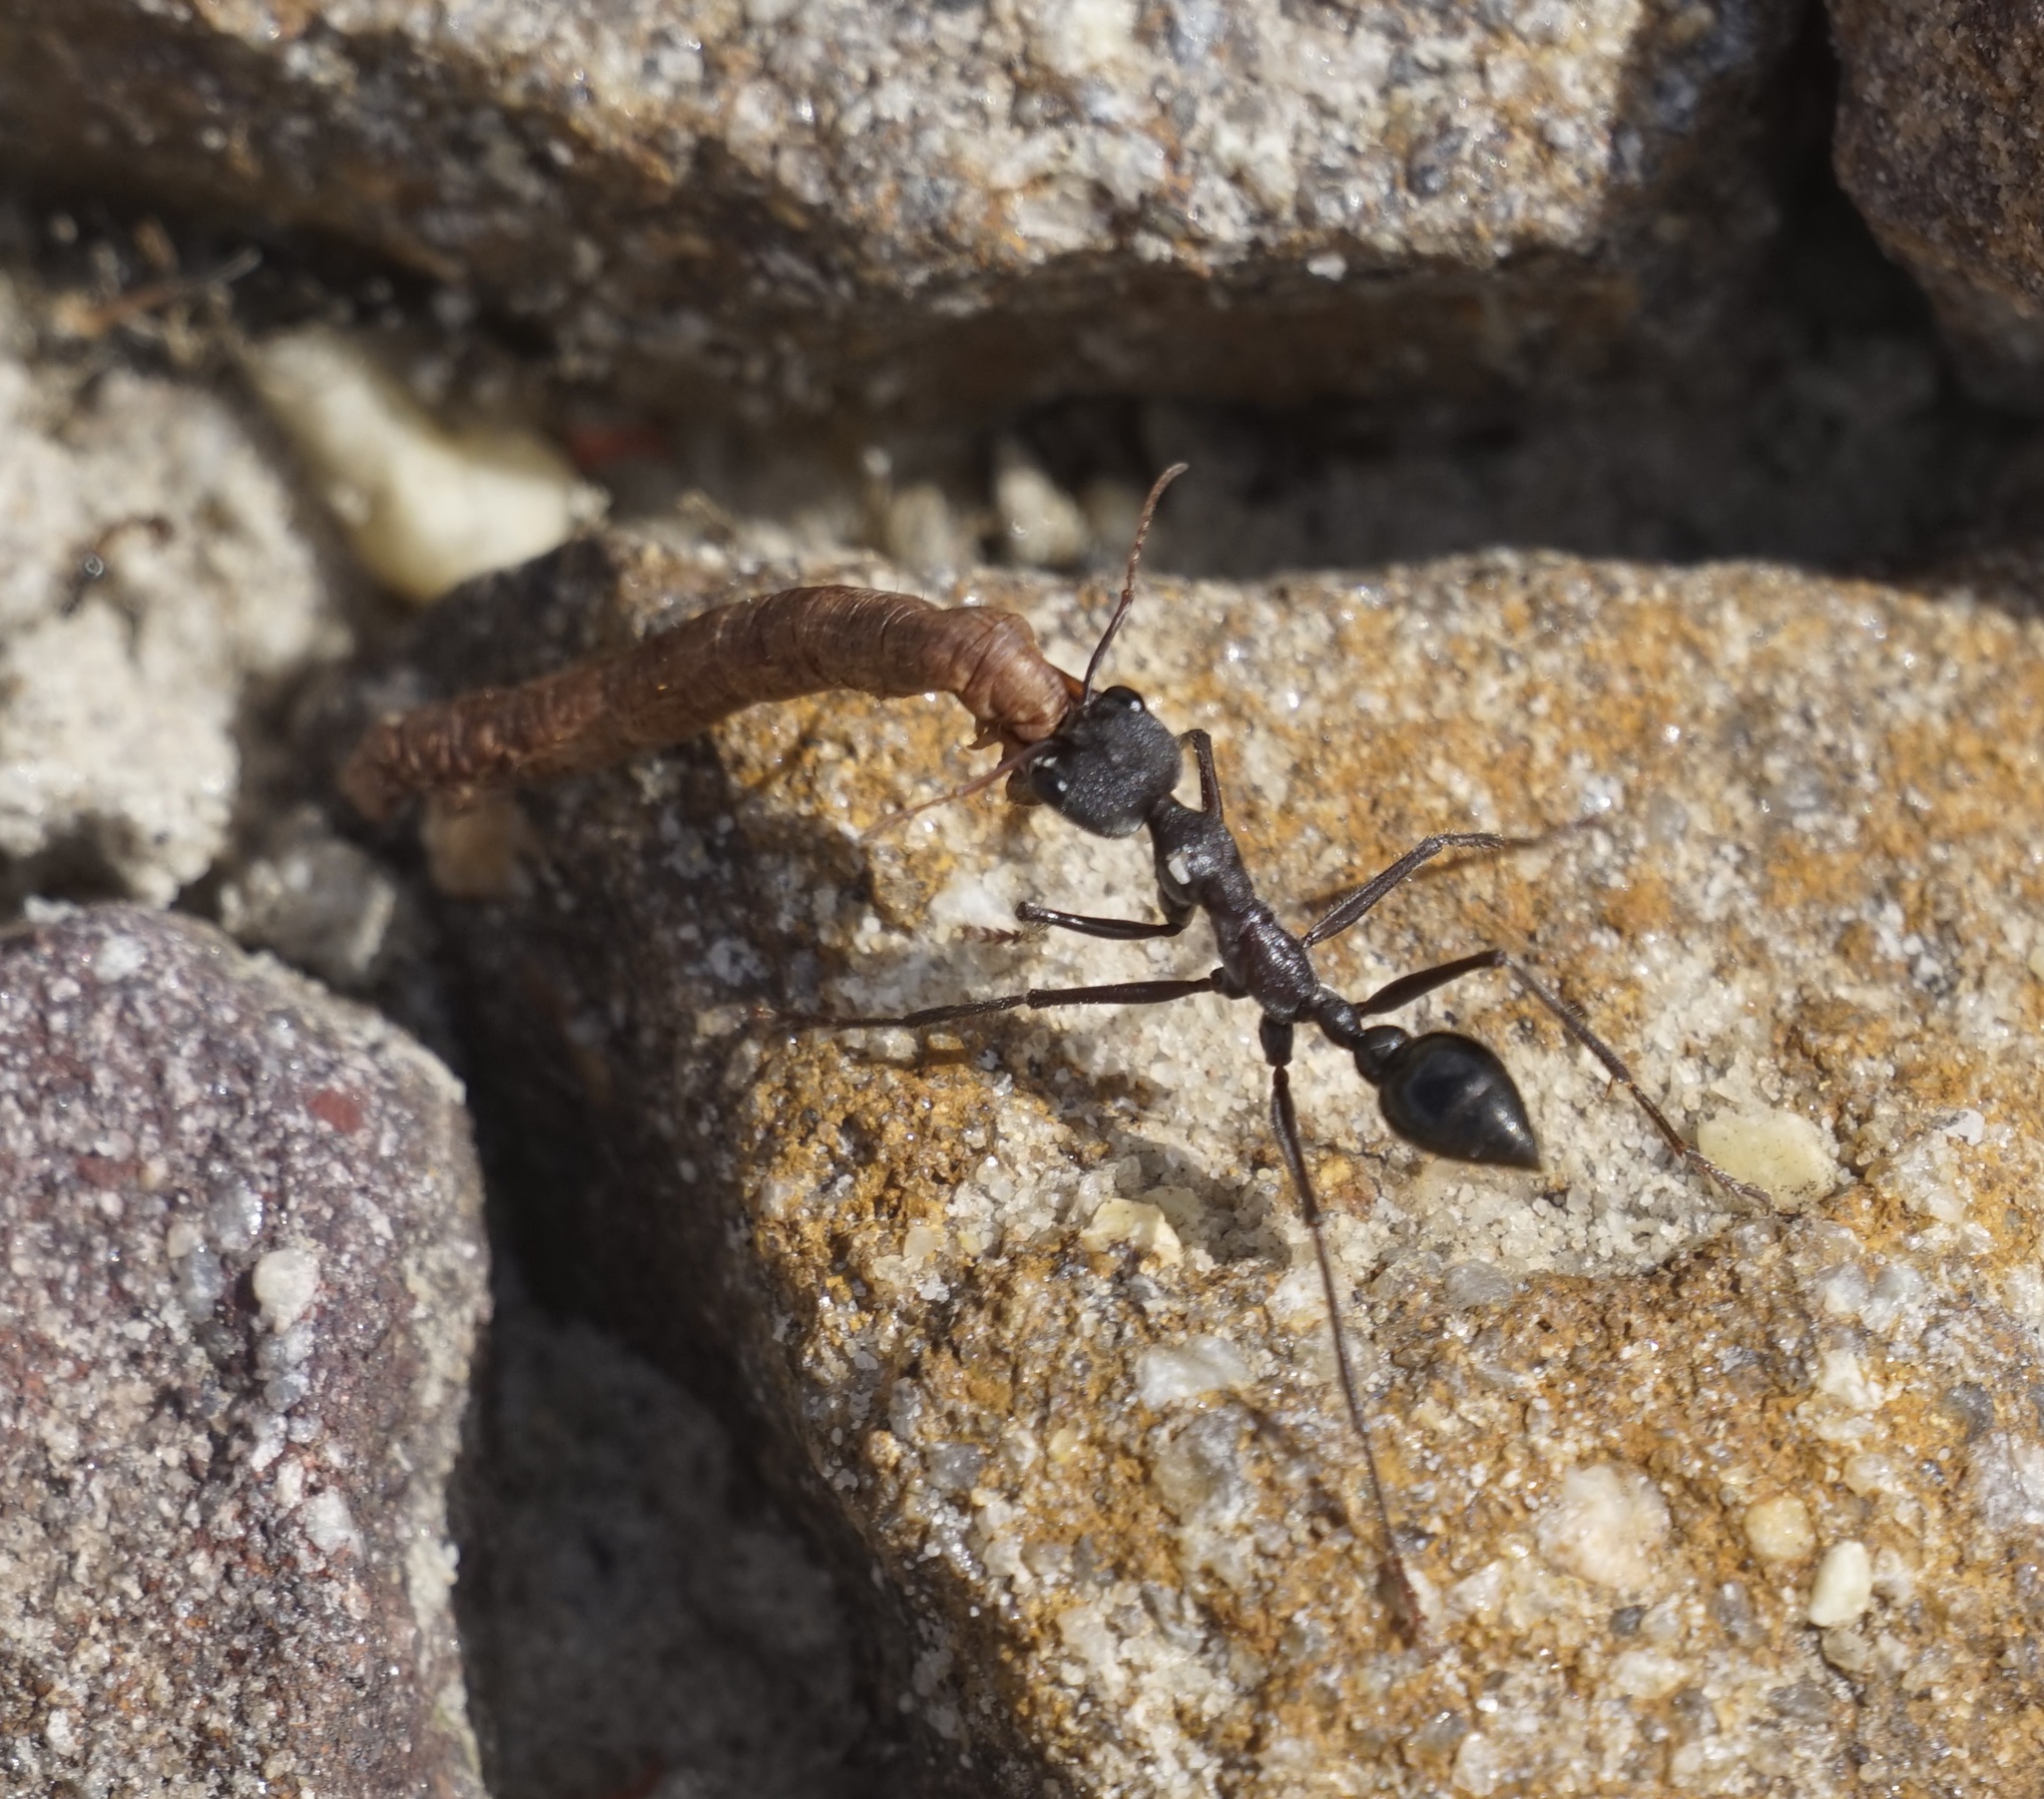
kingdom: Animalia
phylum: Arthropoda
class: Insecta
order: Hymenoptera
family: Formicidae
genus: Myrmecia
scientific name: Myrmecia simillima
